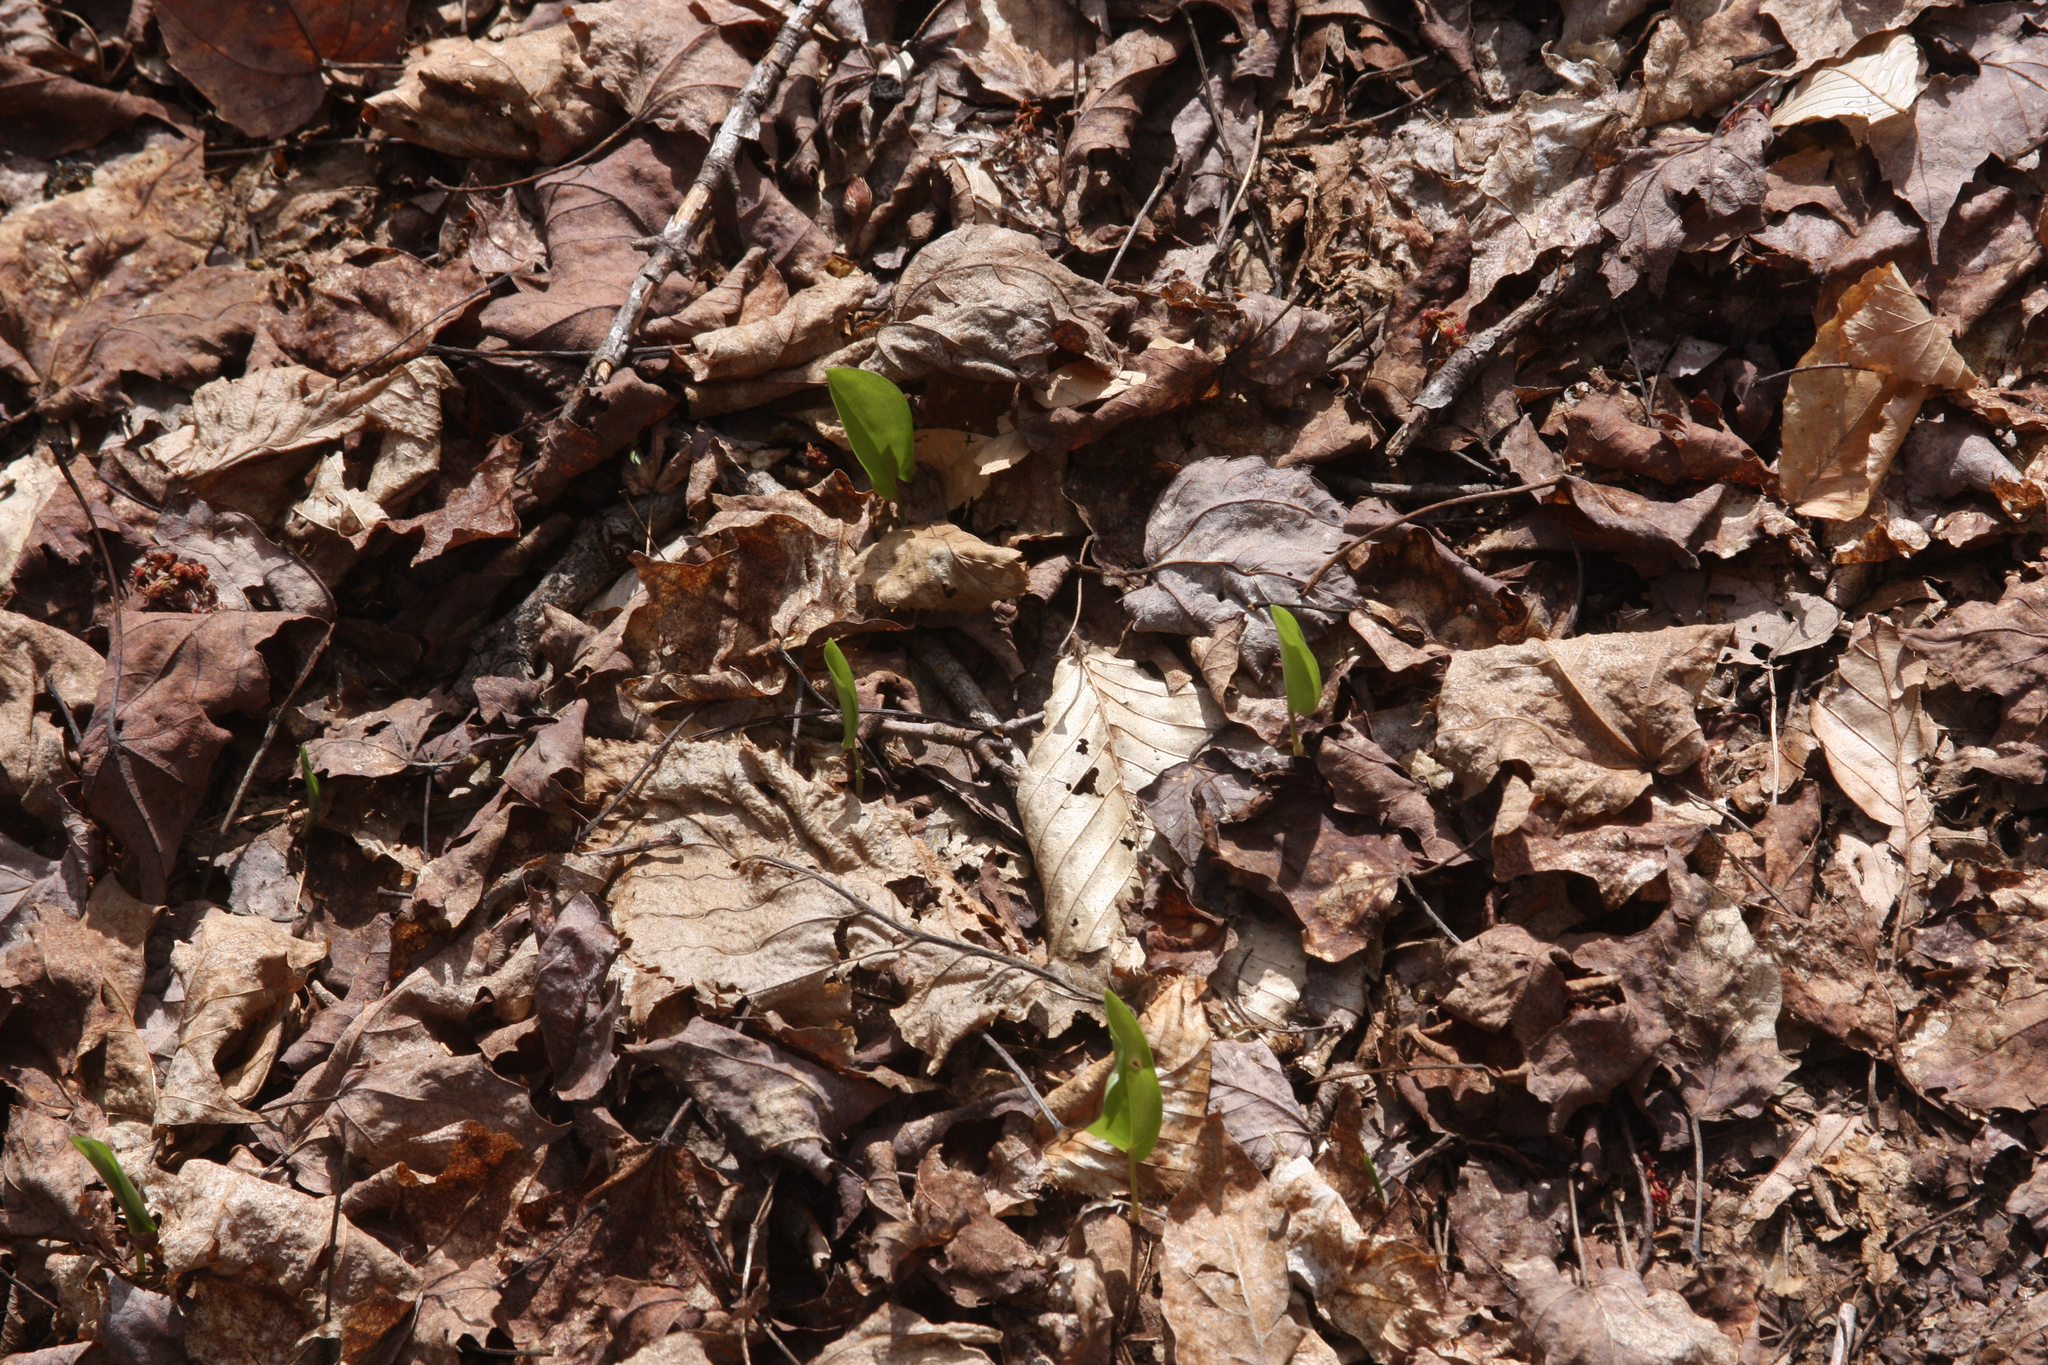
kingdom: Plantae
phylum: Tracheophyta
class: Liliopsida
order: Asparagales
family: Asparagaceae
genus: Maianthemum
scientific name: Maianthemum canadense
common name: False lily-of-the-valley
